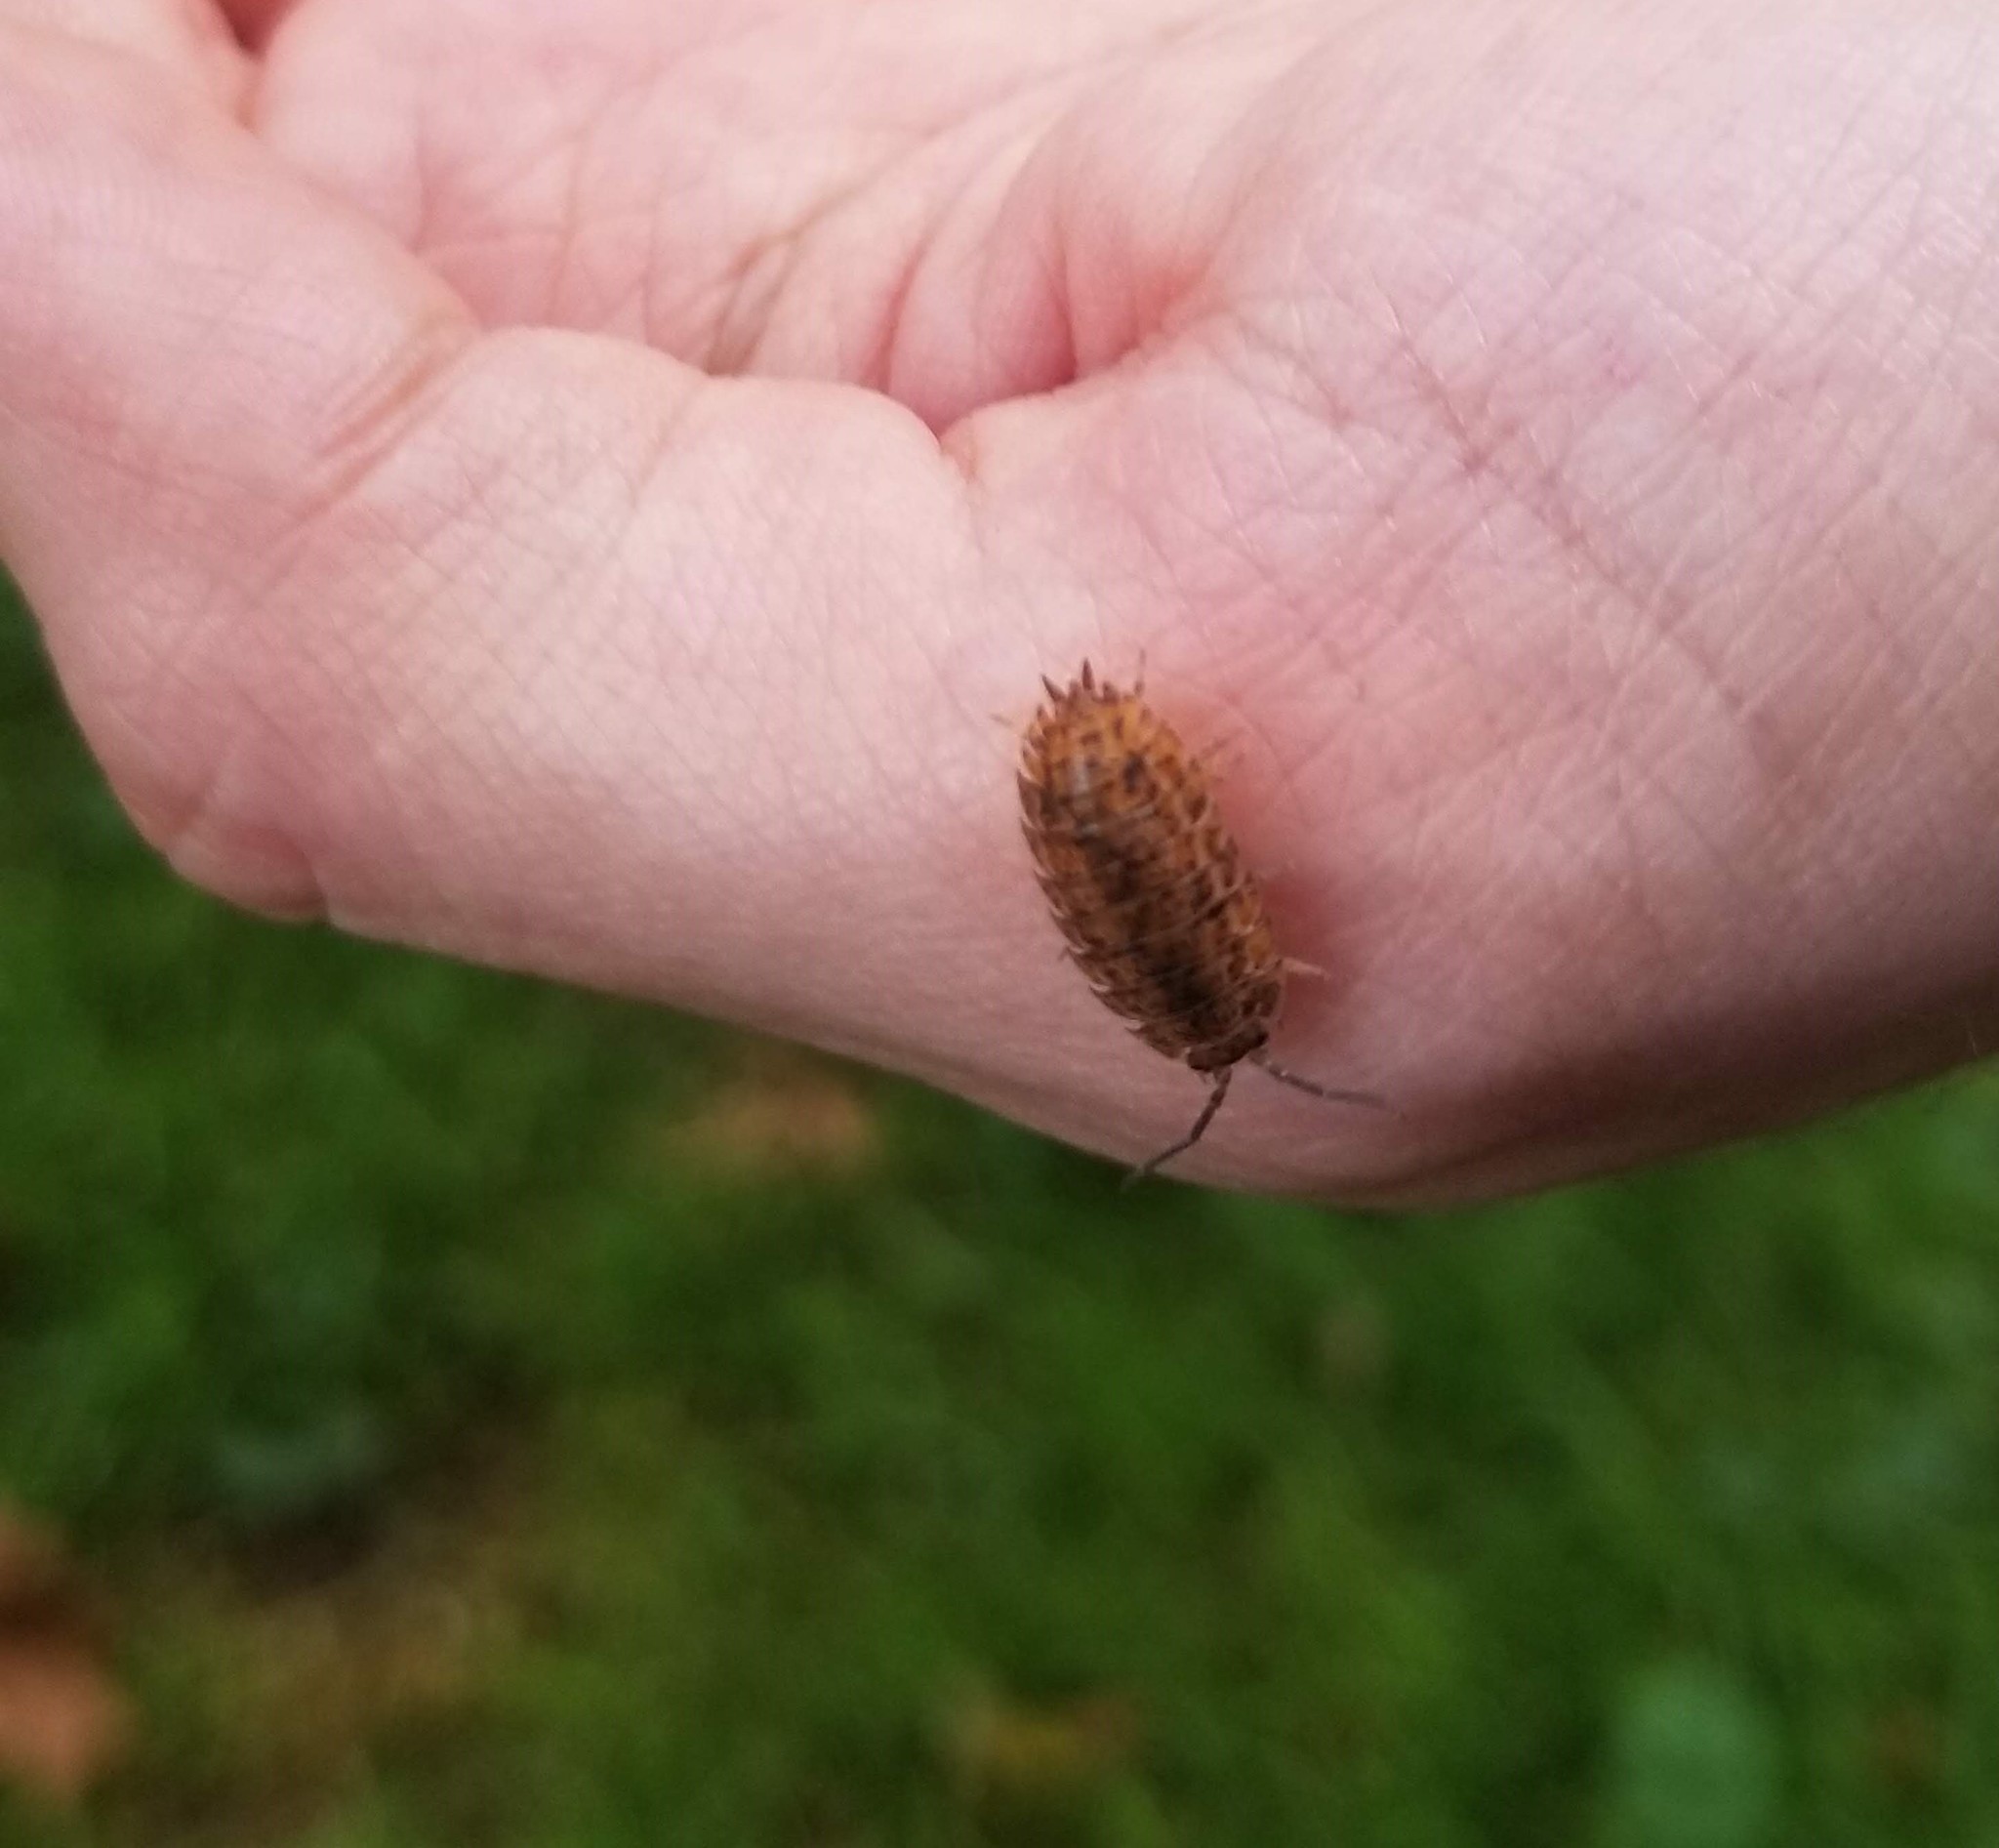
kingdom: Animalia
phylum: Arthropoda
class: Malacostraca
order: Isopoda
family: Trachelipodidae
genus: Trachelipus
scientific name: Trachelipus rathkii
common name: Isopod
